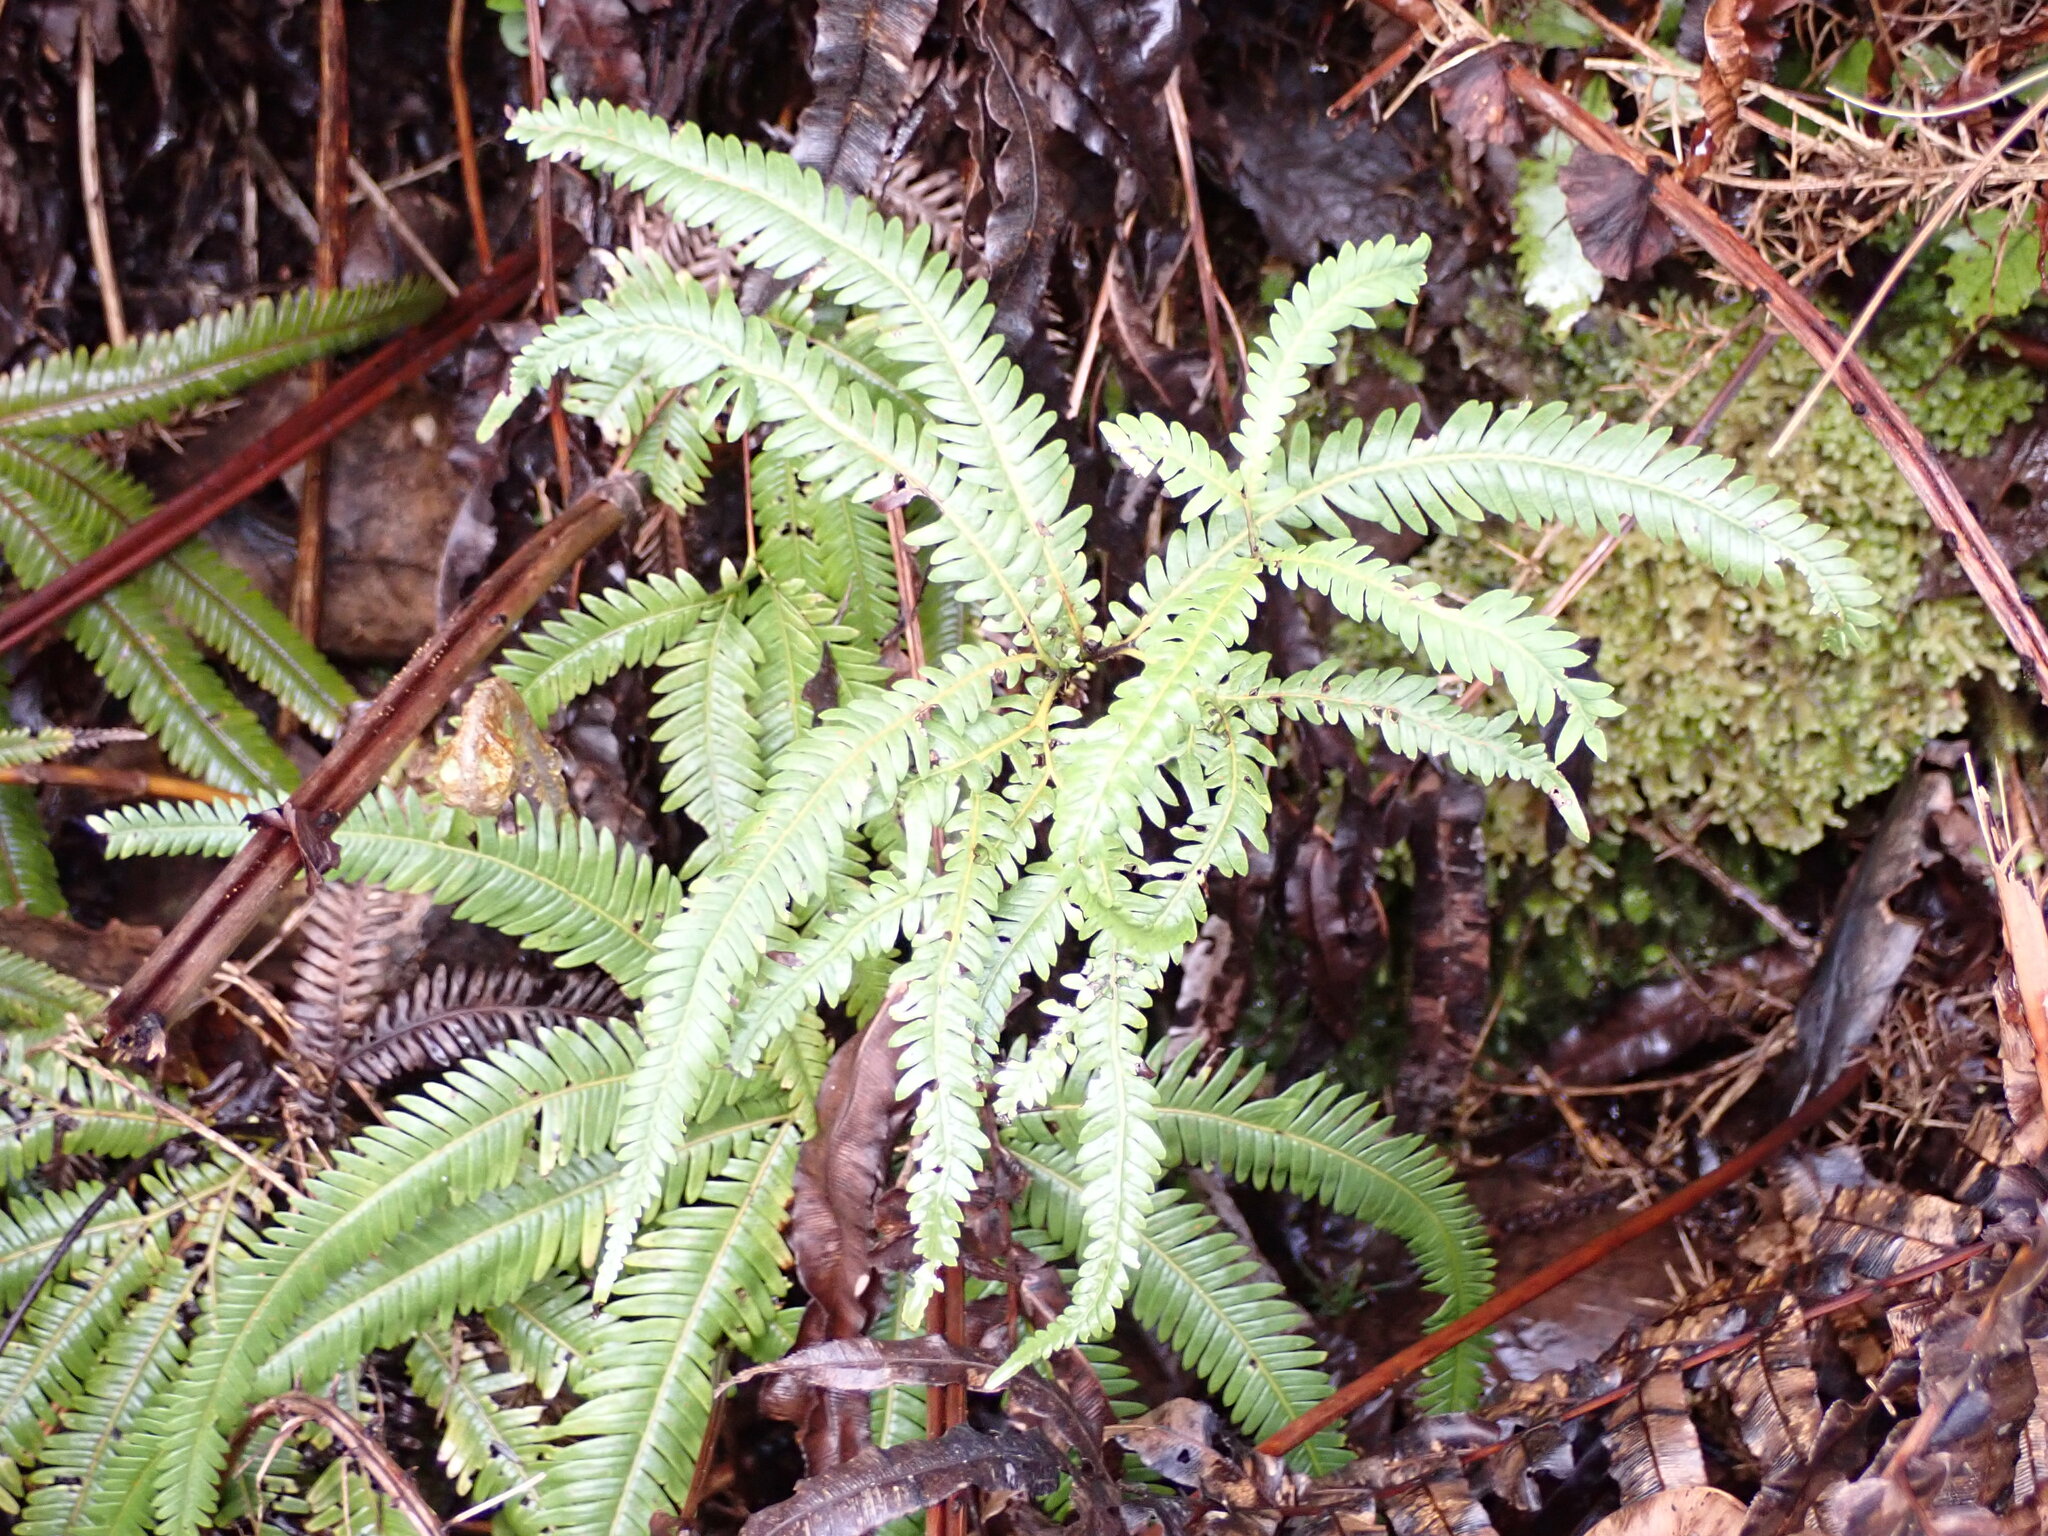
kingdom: Plantae
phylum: Tracheophyta
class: Polypodiopsida
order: Gleicheniales
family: Gleicheniaceae
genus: Sticherus
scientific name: Sticherus cunninghamii
